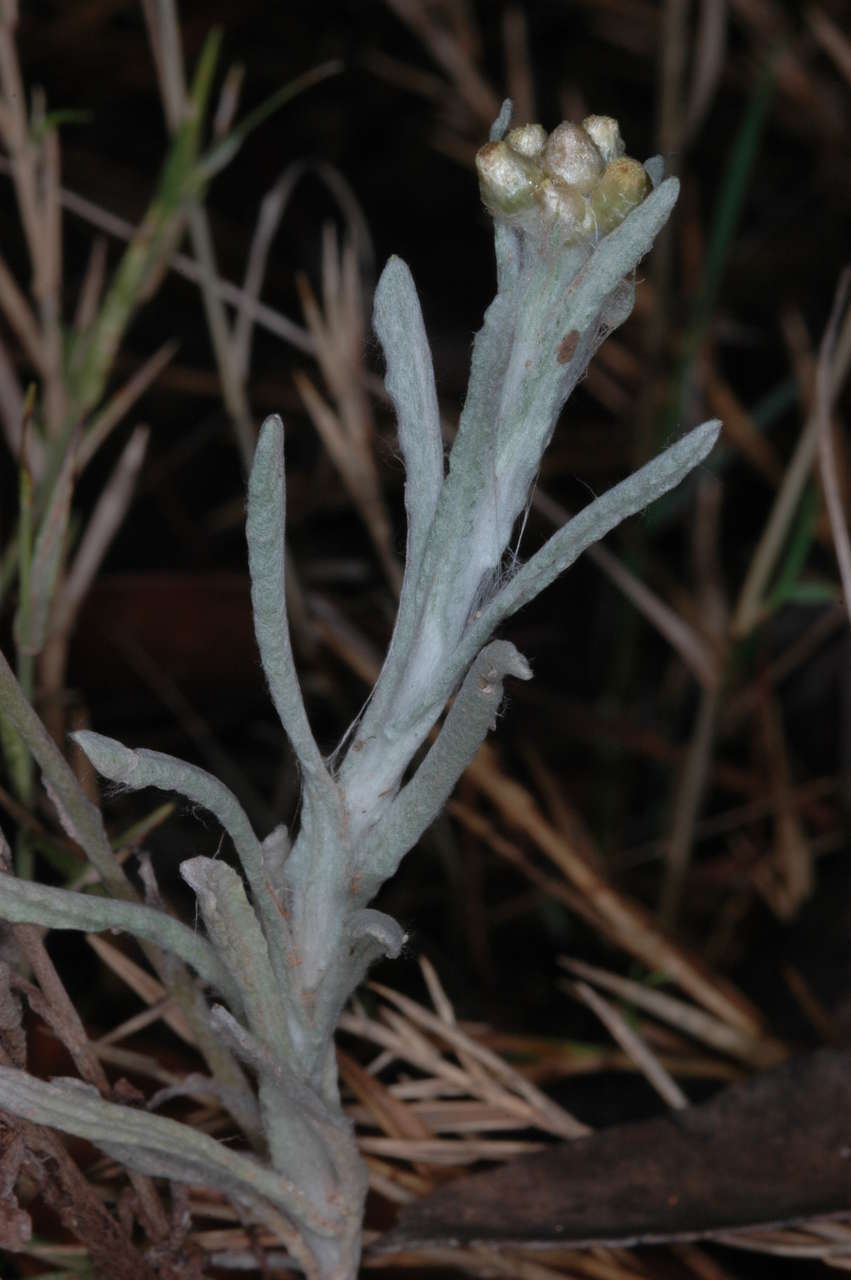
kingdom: Plantae
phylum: Tracheophyta
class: Magnoliopsida
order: Asterales
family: Asteraceae
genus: Helichrysum
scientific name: Helichrysum luteoalbum
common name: Daisy
